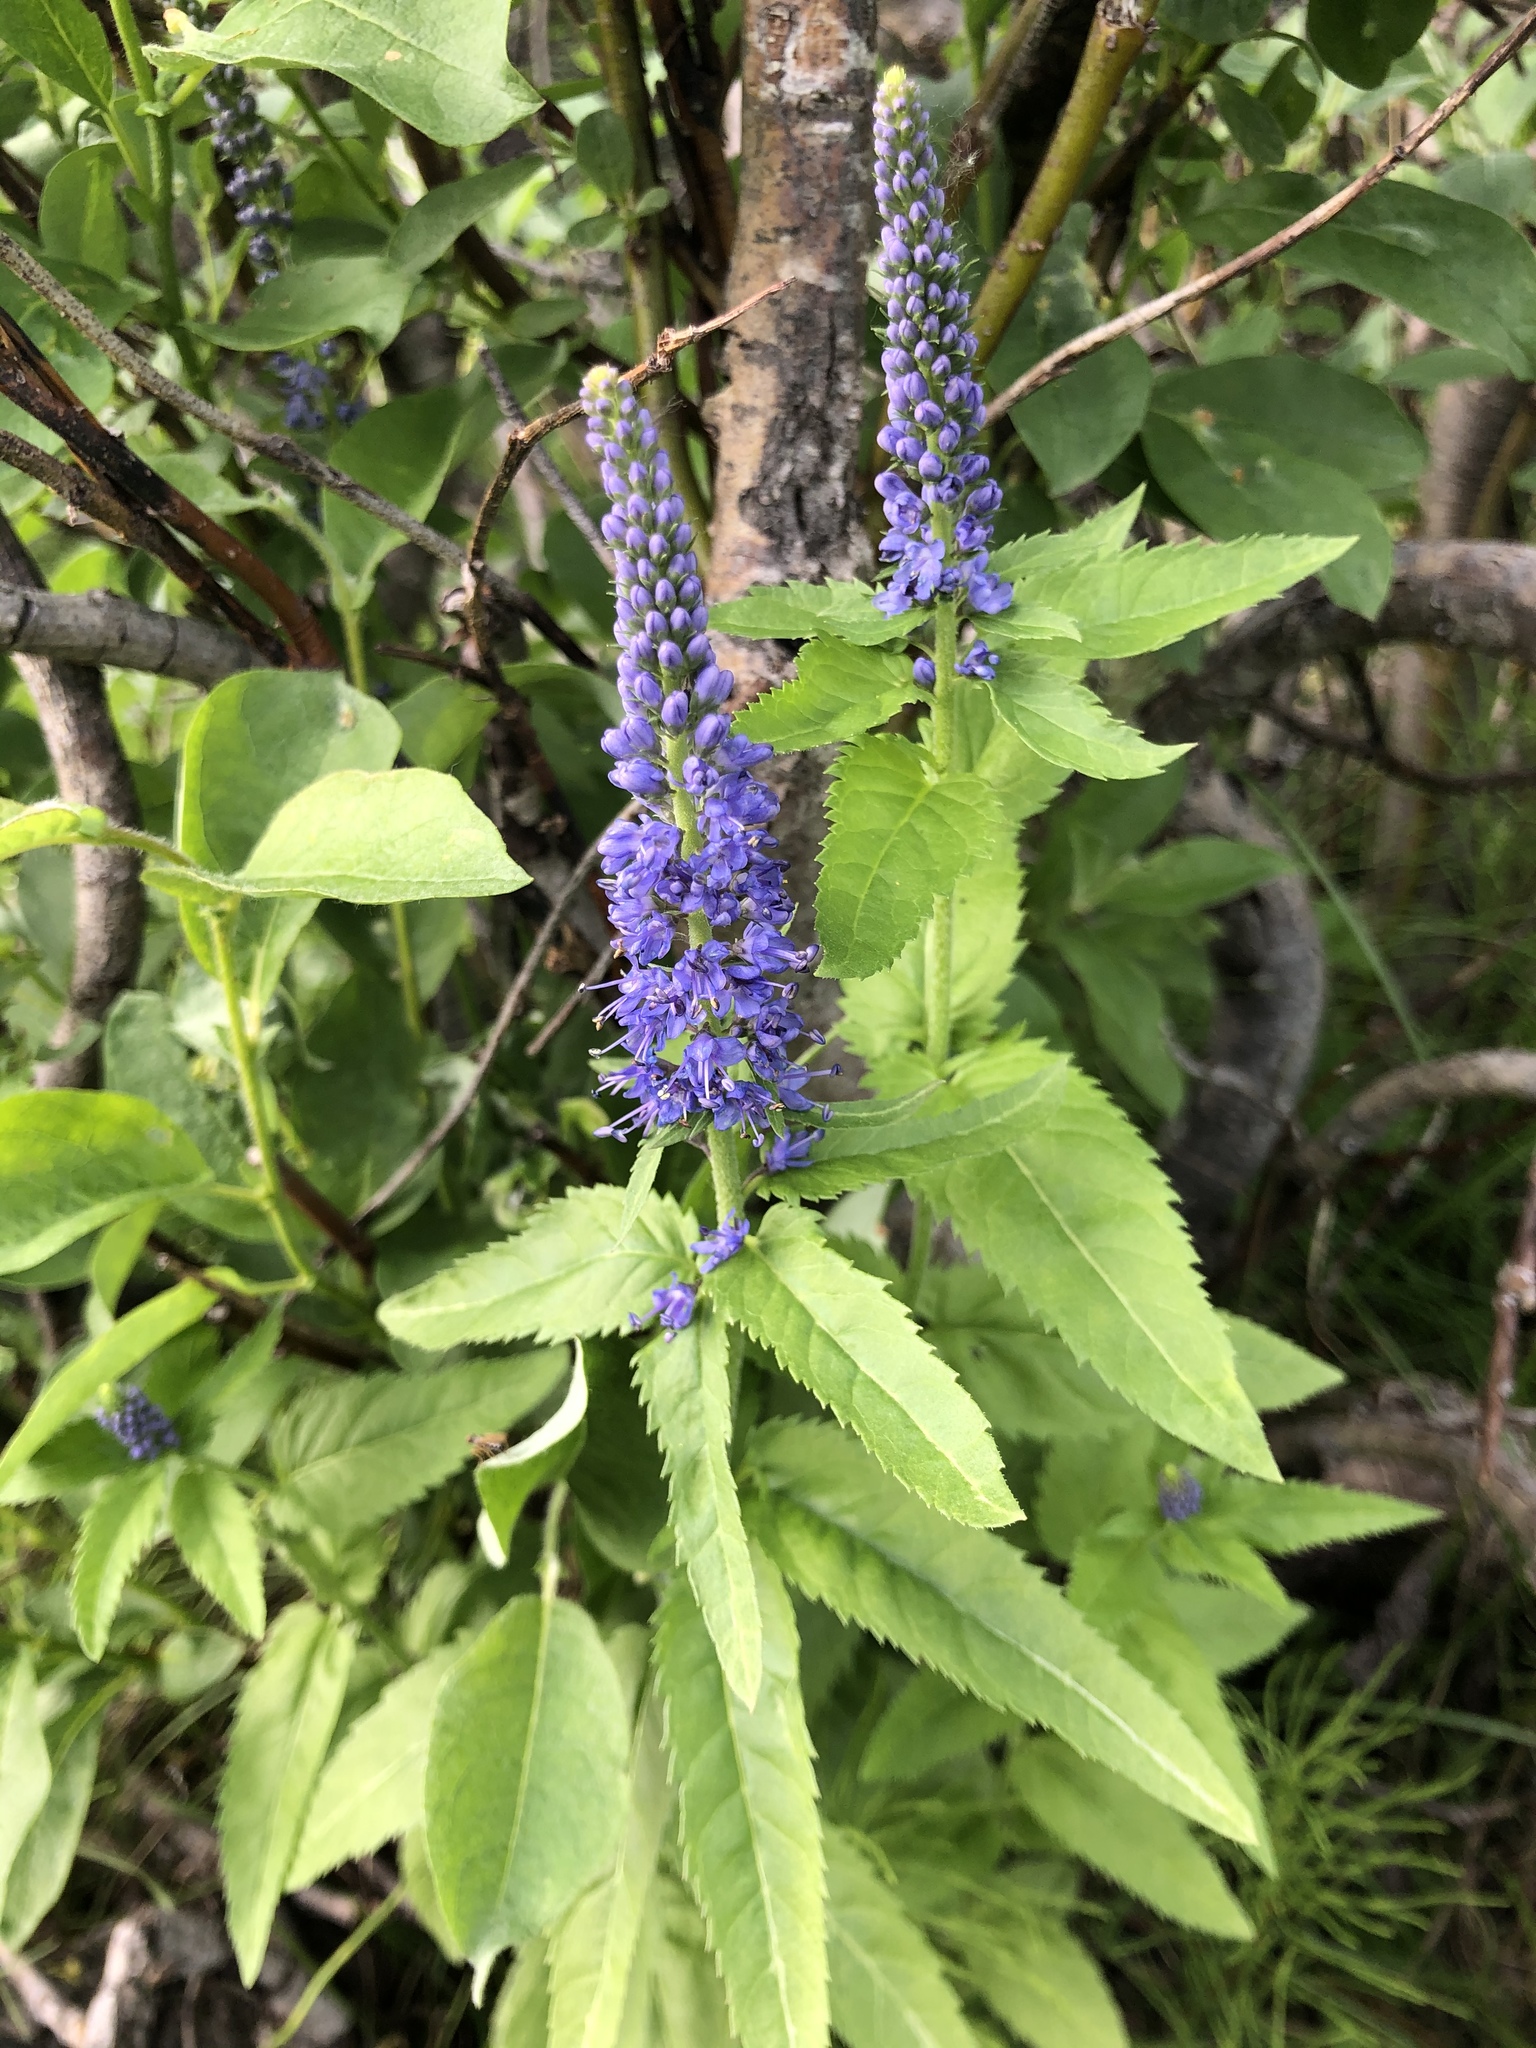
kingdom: Plantae
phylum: Tracheophyta
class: Magnoliopsida
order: Lamiales
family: Plantaginaceae
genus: Veronica
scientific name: Veronica longifolia
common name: Garden speedwell
